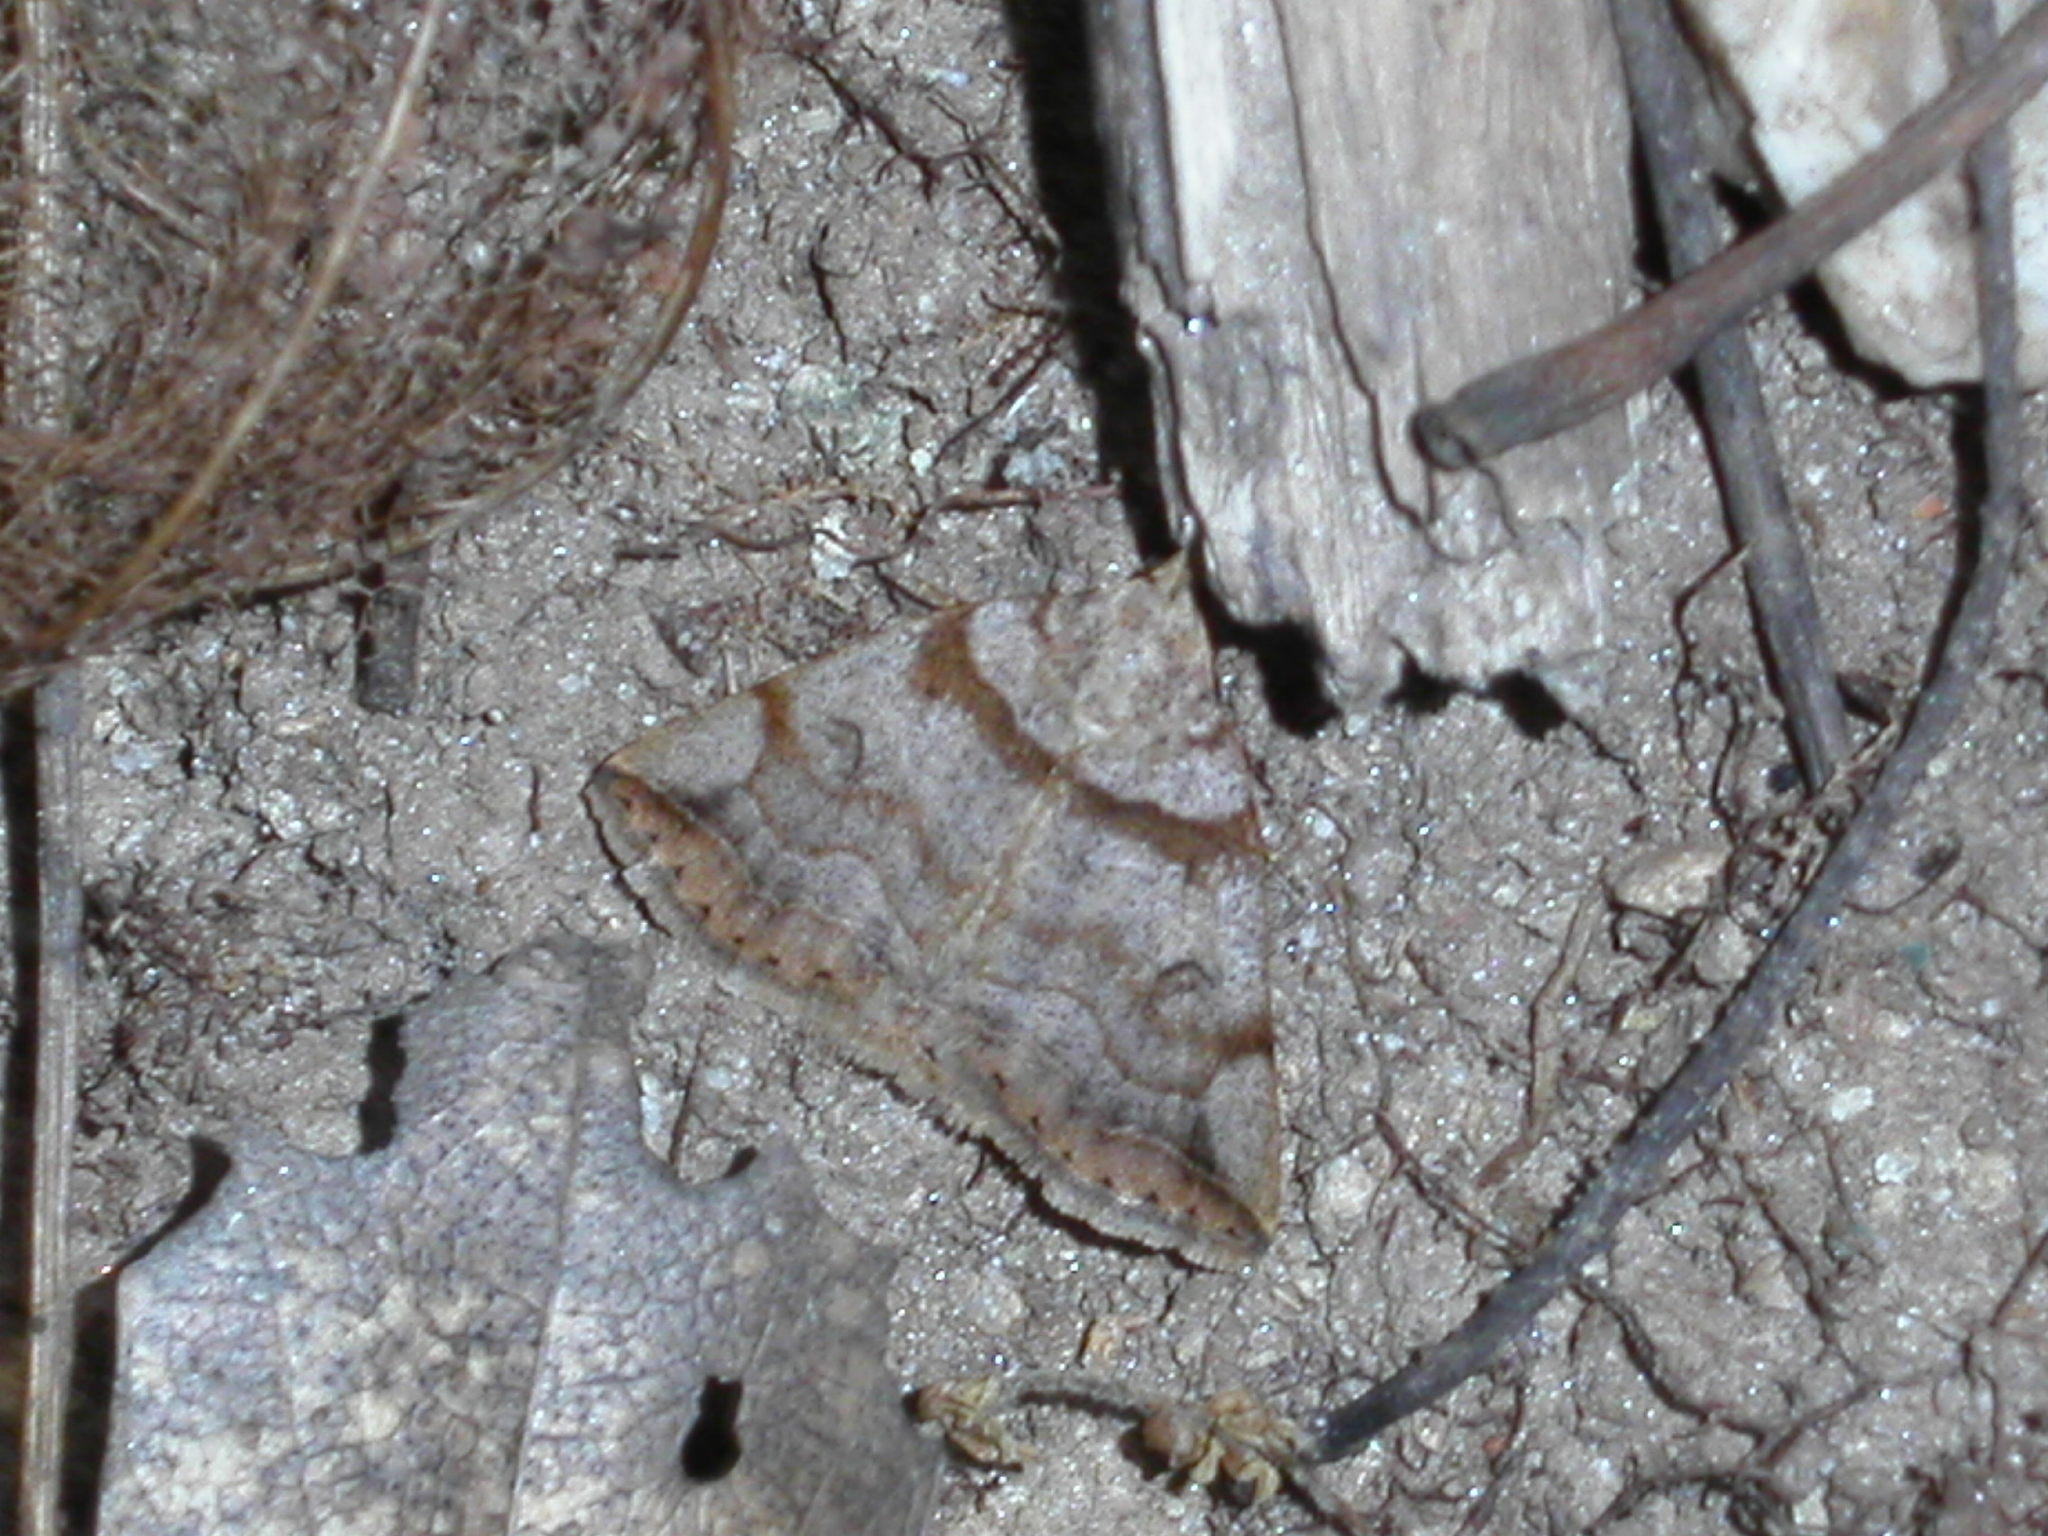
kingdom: Animalia
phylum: Arthropoda
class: Insecta
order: Lepidoptera
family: Erebidae
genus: Zanclognatha
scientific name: Zanclognatha laevigata
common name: Variable fan-foot
